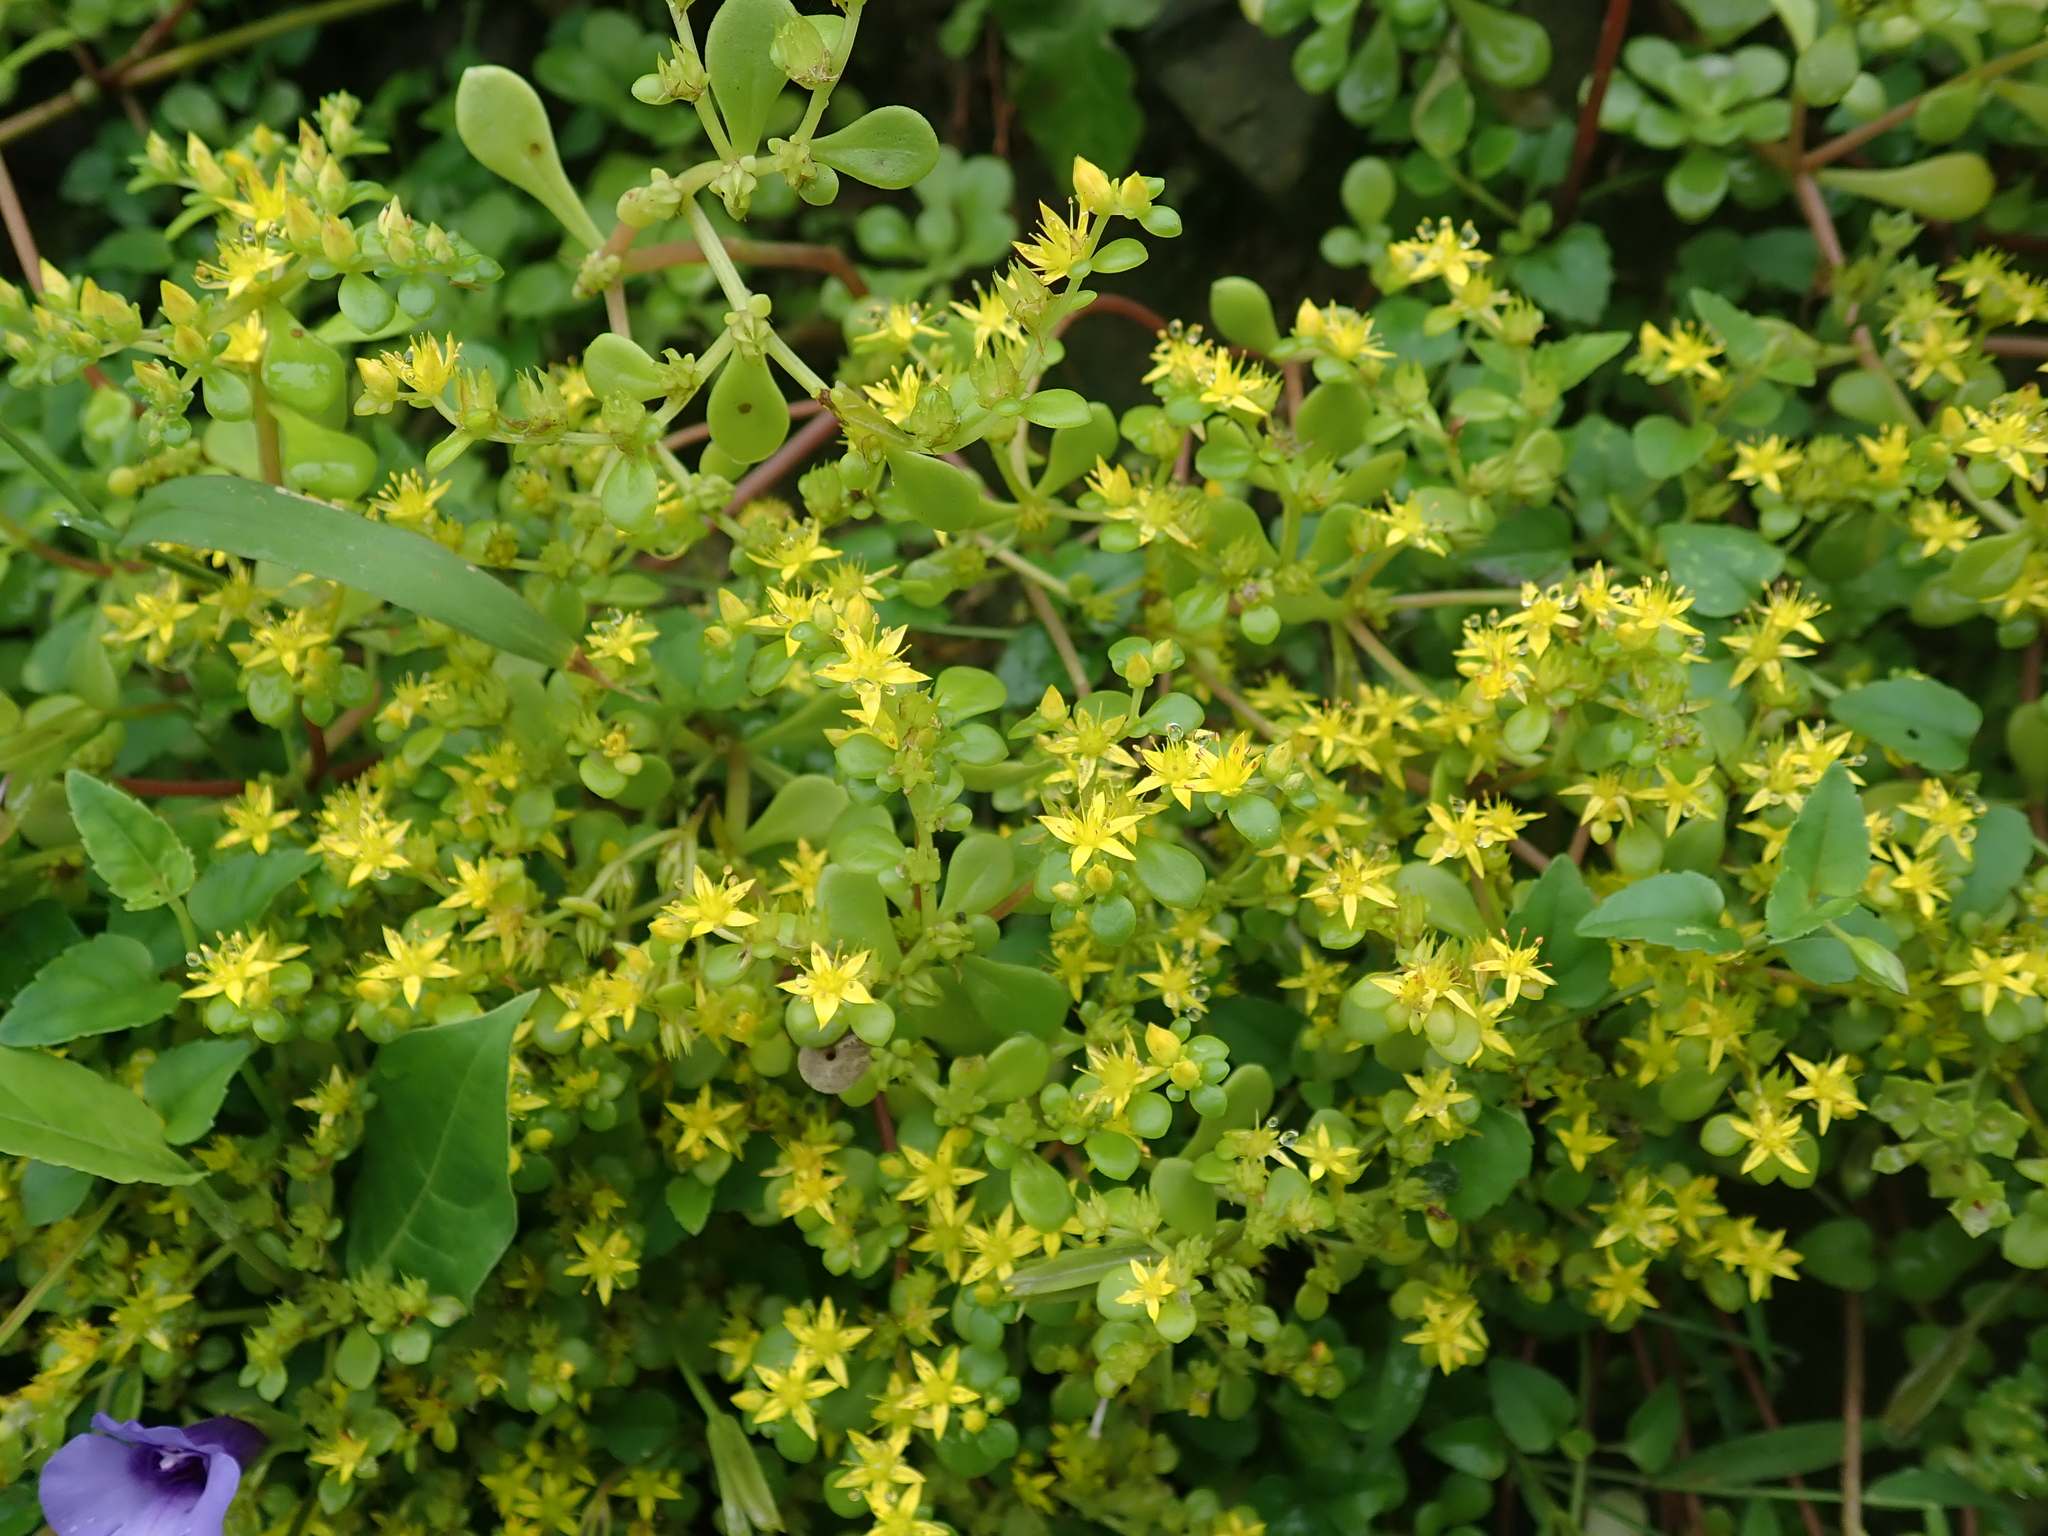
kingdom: Plantae
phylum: Tracheophyta
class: Magnoliopsida
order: Saxifragales
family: Crassulaceae
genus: Sedum
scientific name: Sedum formosanum
